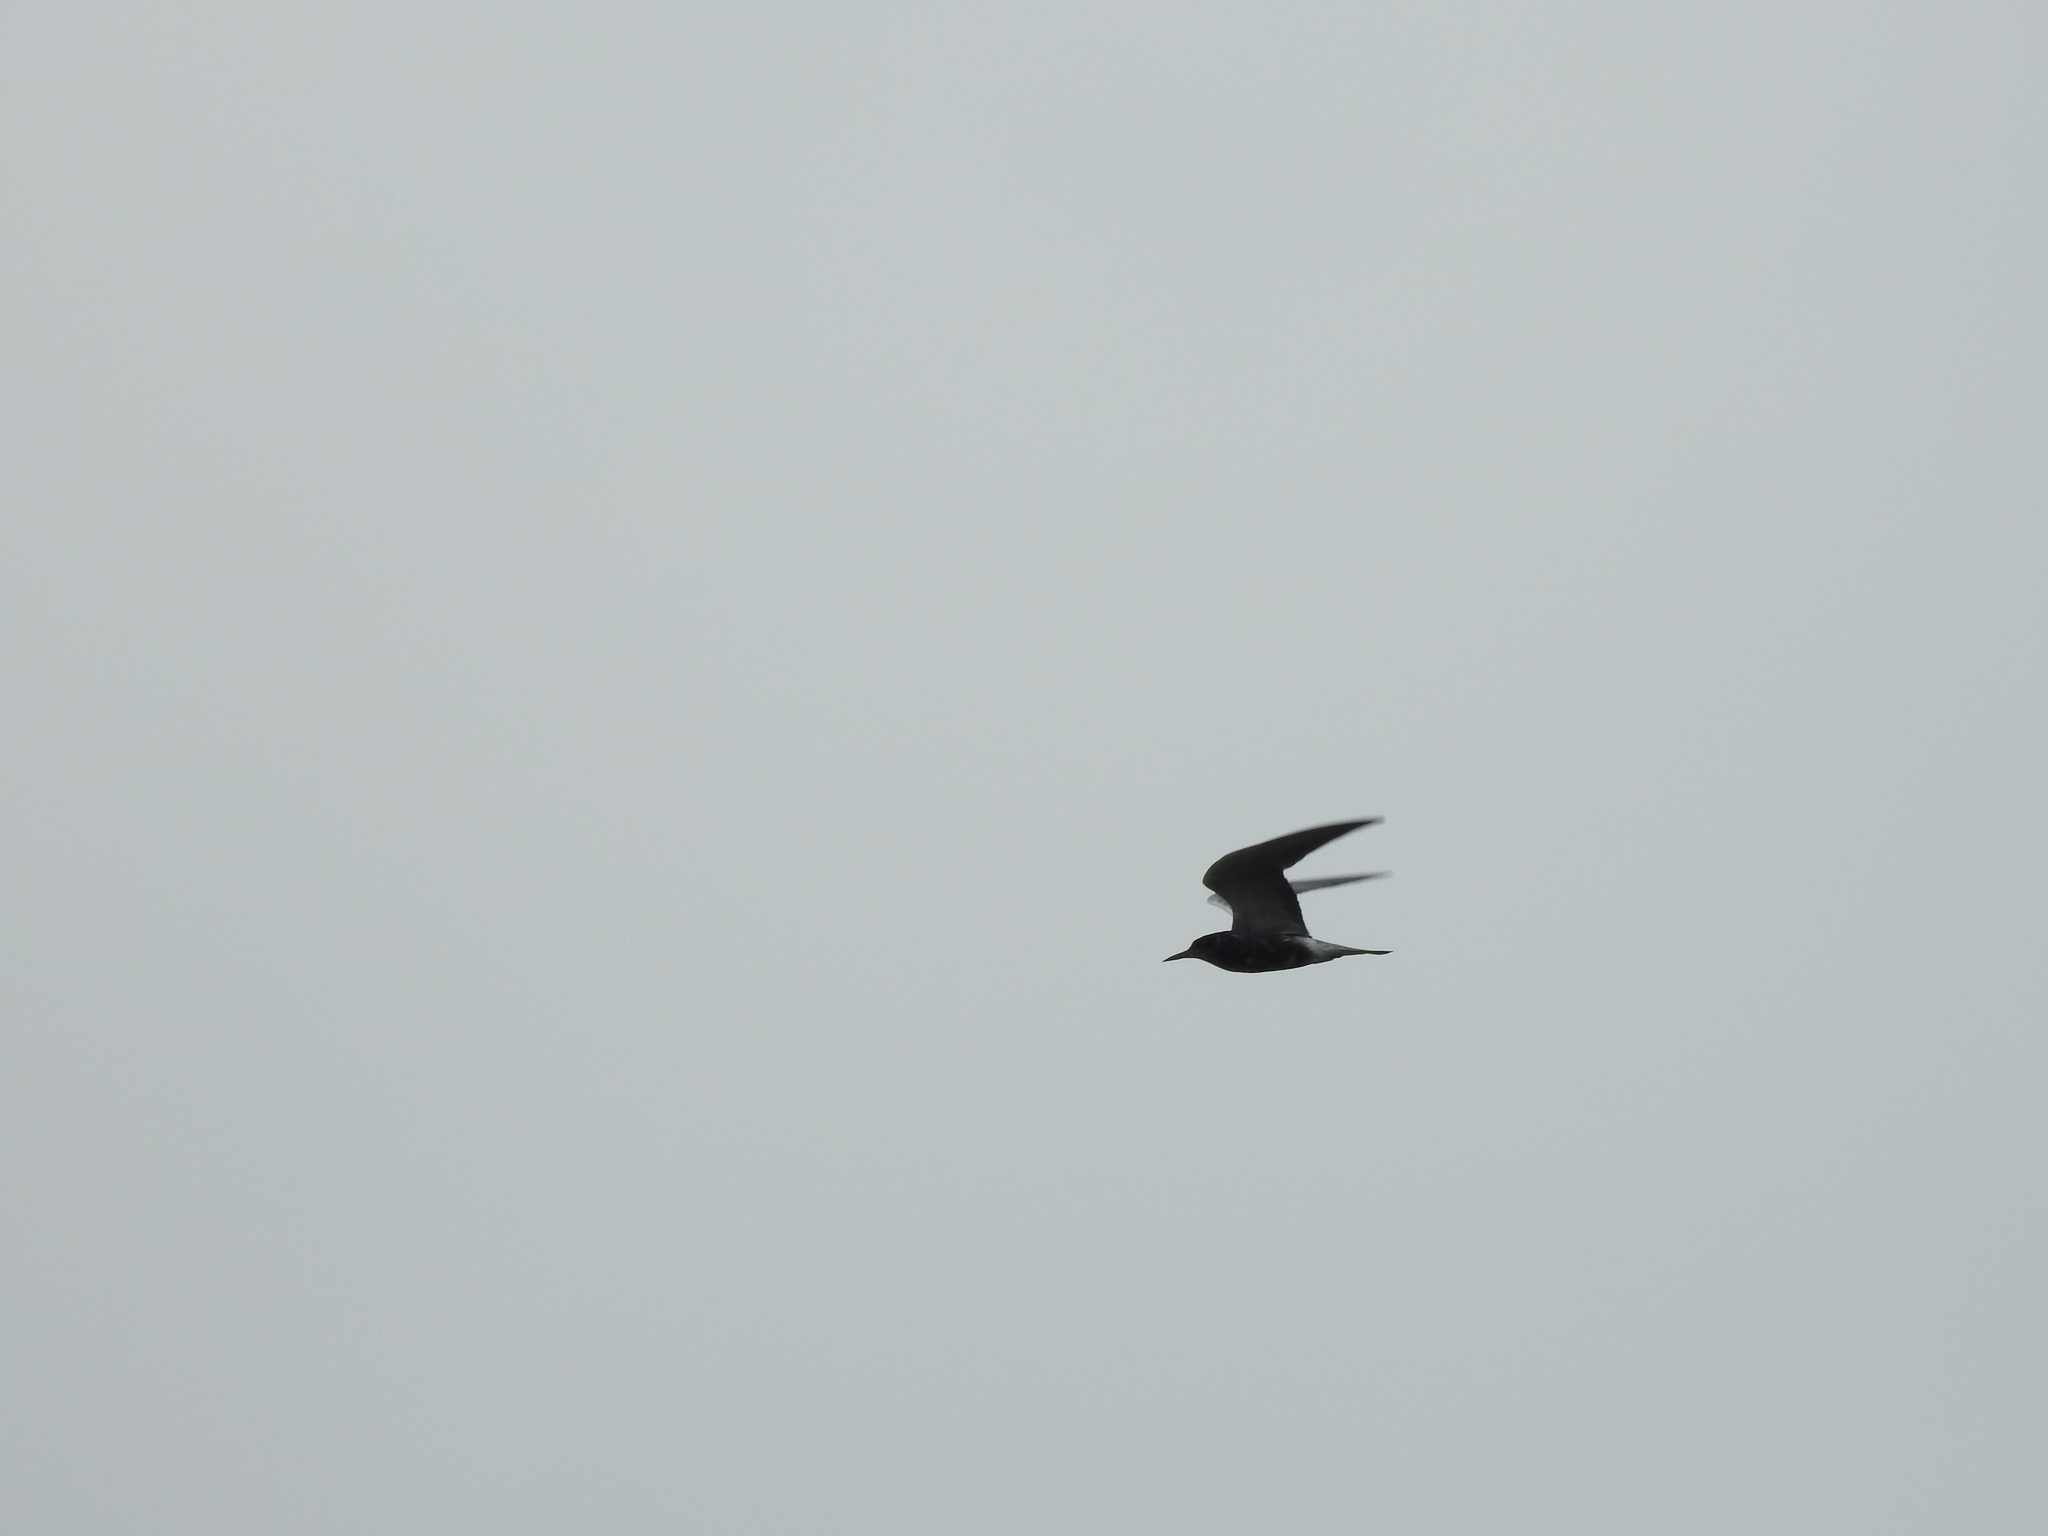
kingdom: Animalia
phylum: Chordata
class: Aves
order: Charadriiformes
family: Laridae
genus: Chlidonias
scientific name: Chlidonias niger
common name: Black tern
